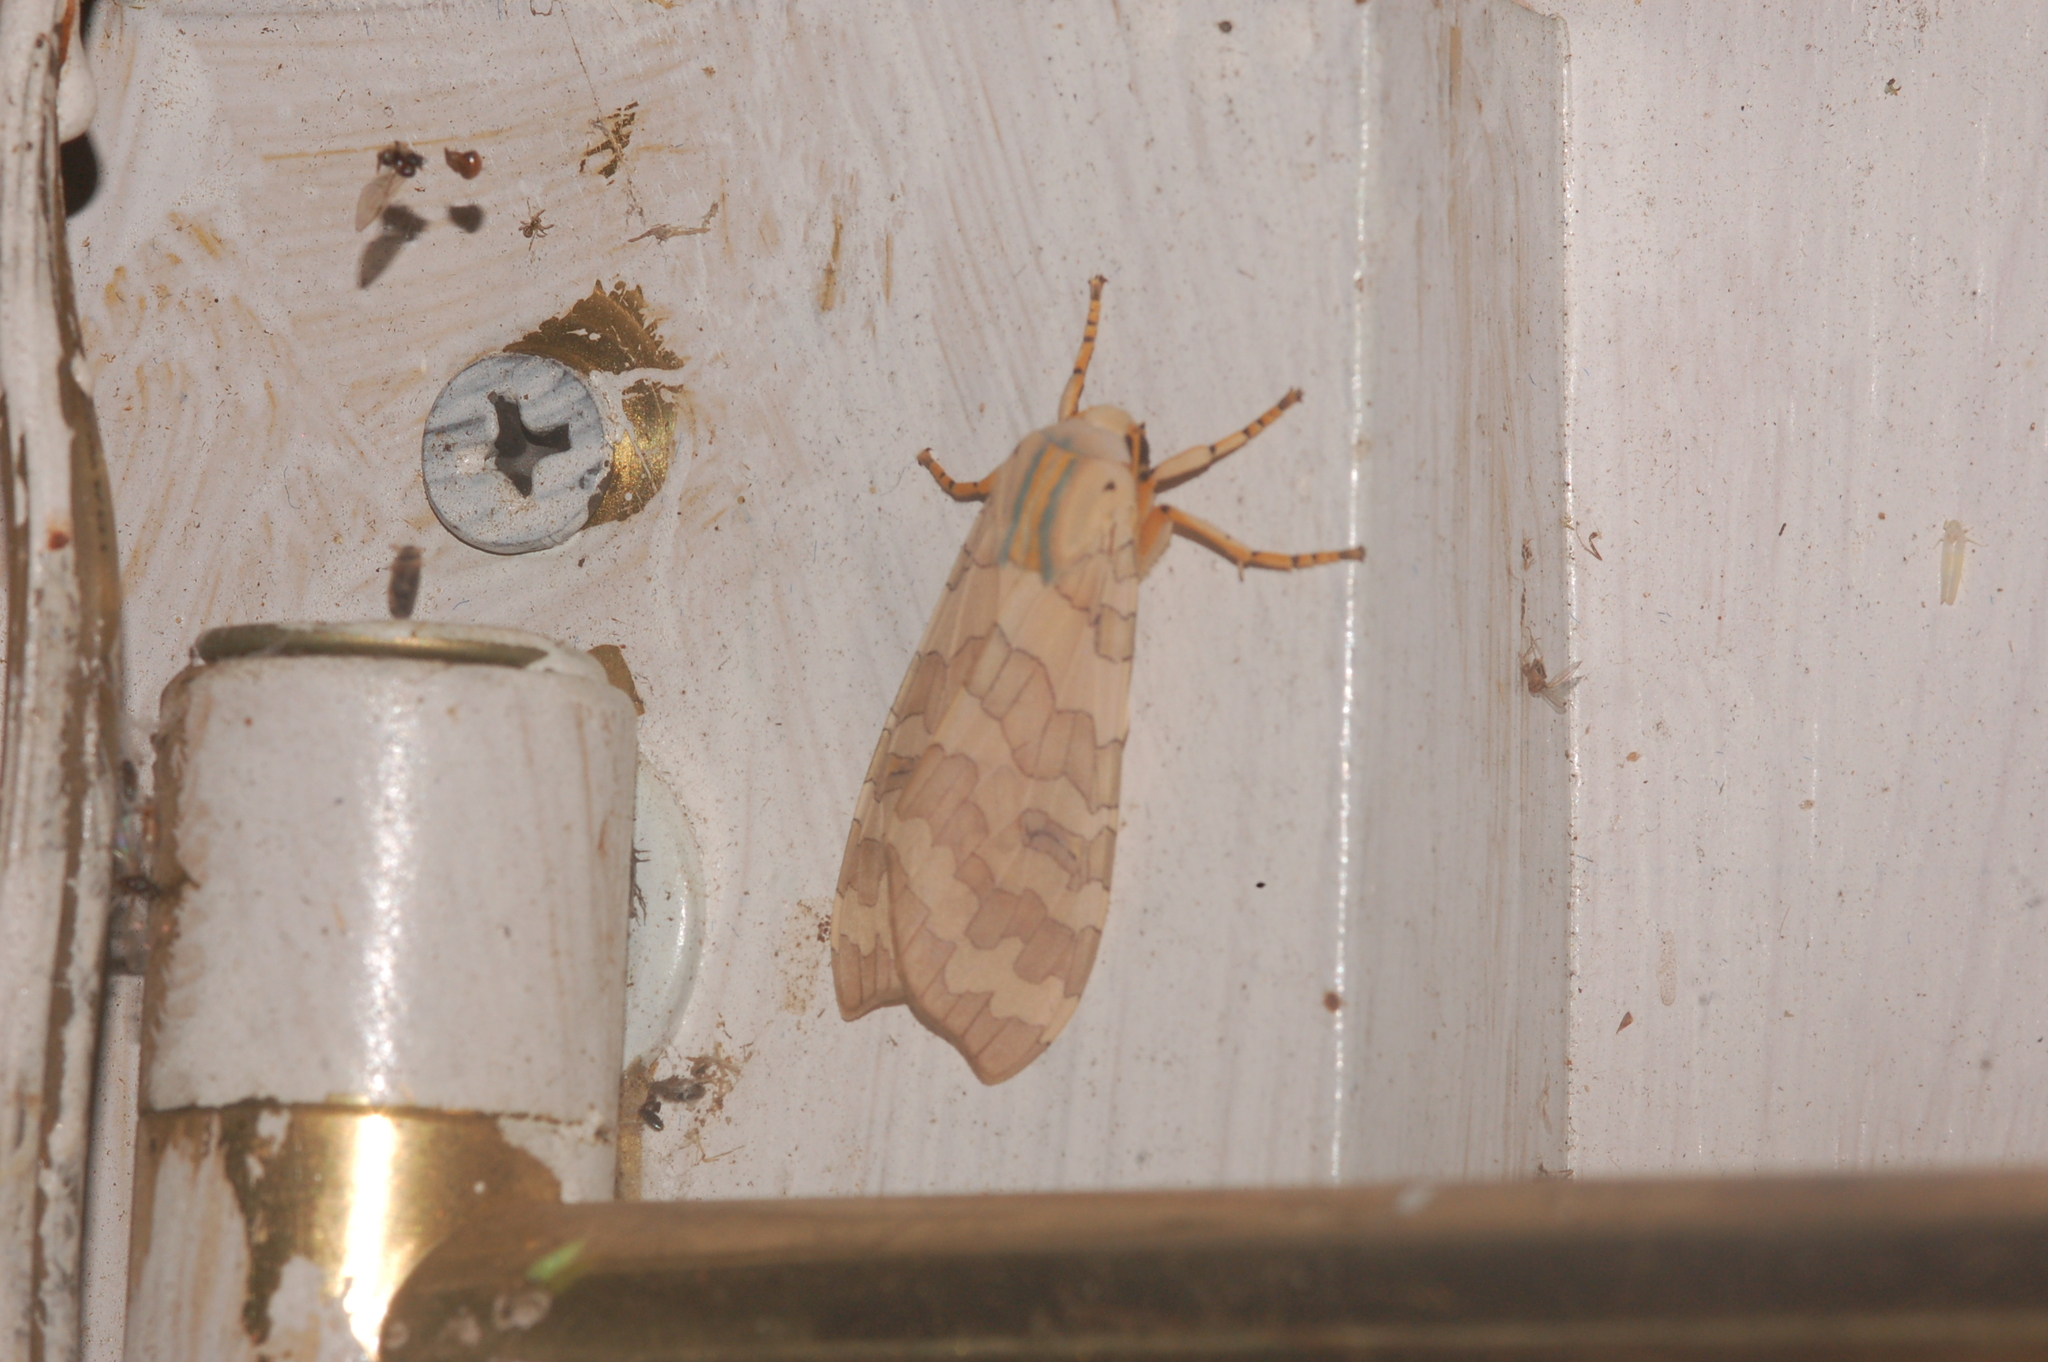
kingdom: Animalia
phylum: Arthropoda
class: Insecta
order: Lepidoptera
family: Erebidae
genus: Halysidota
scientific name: Halysidota
